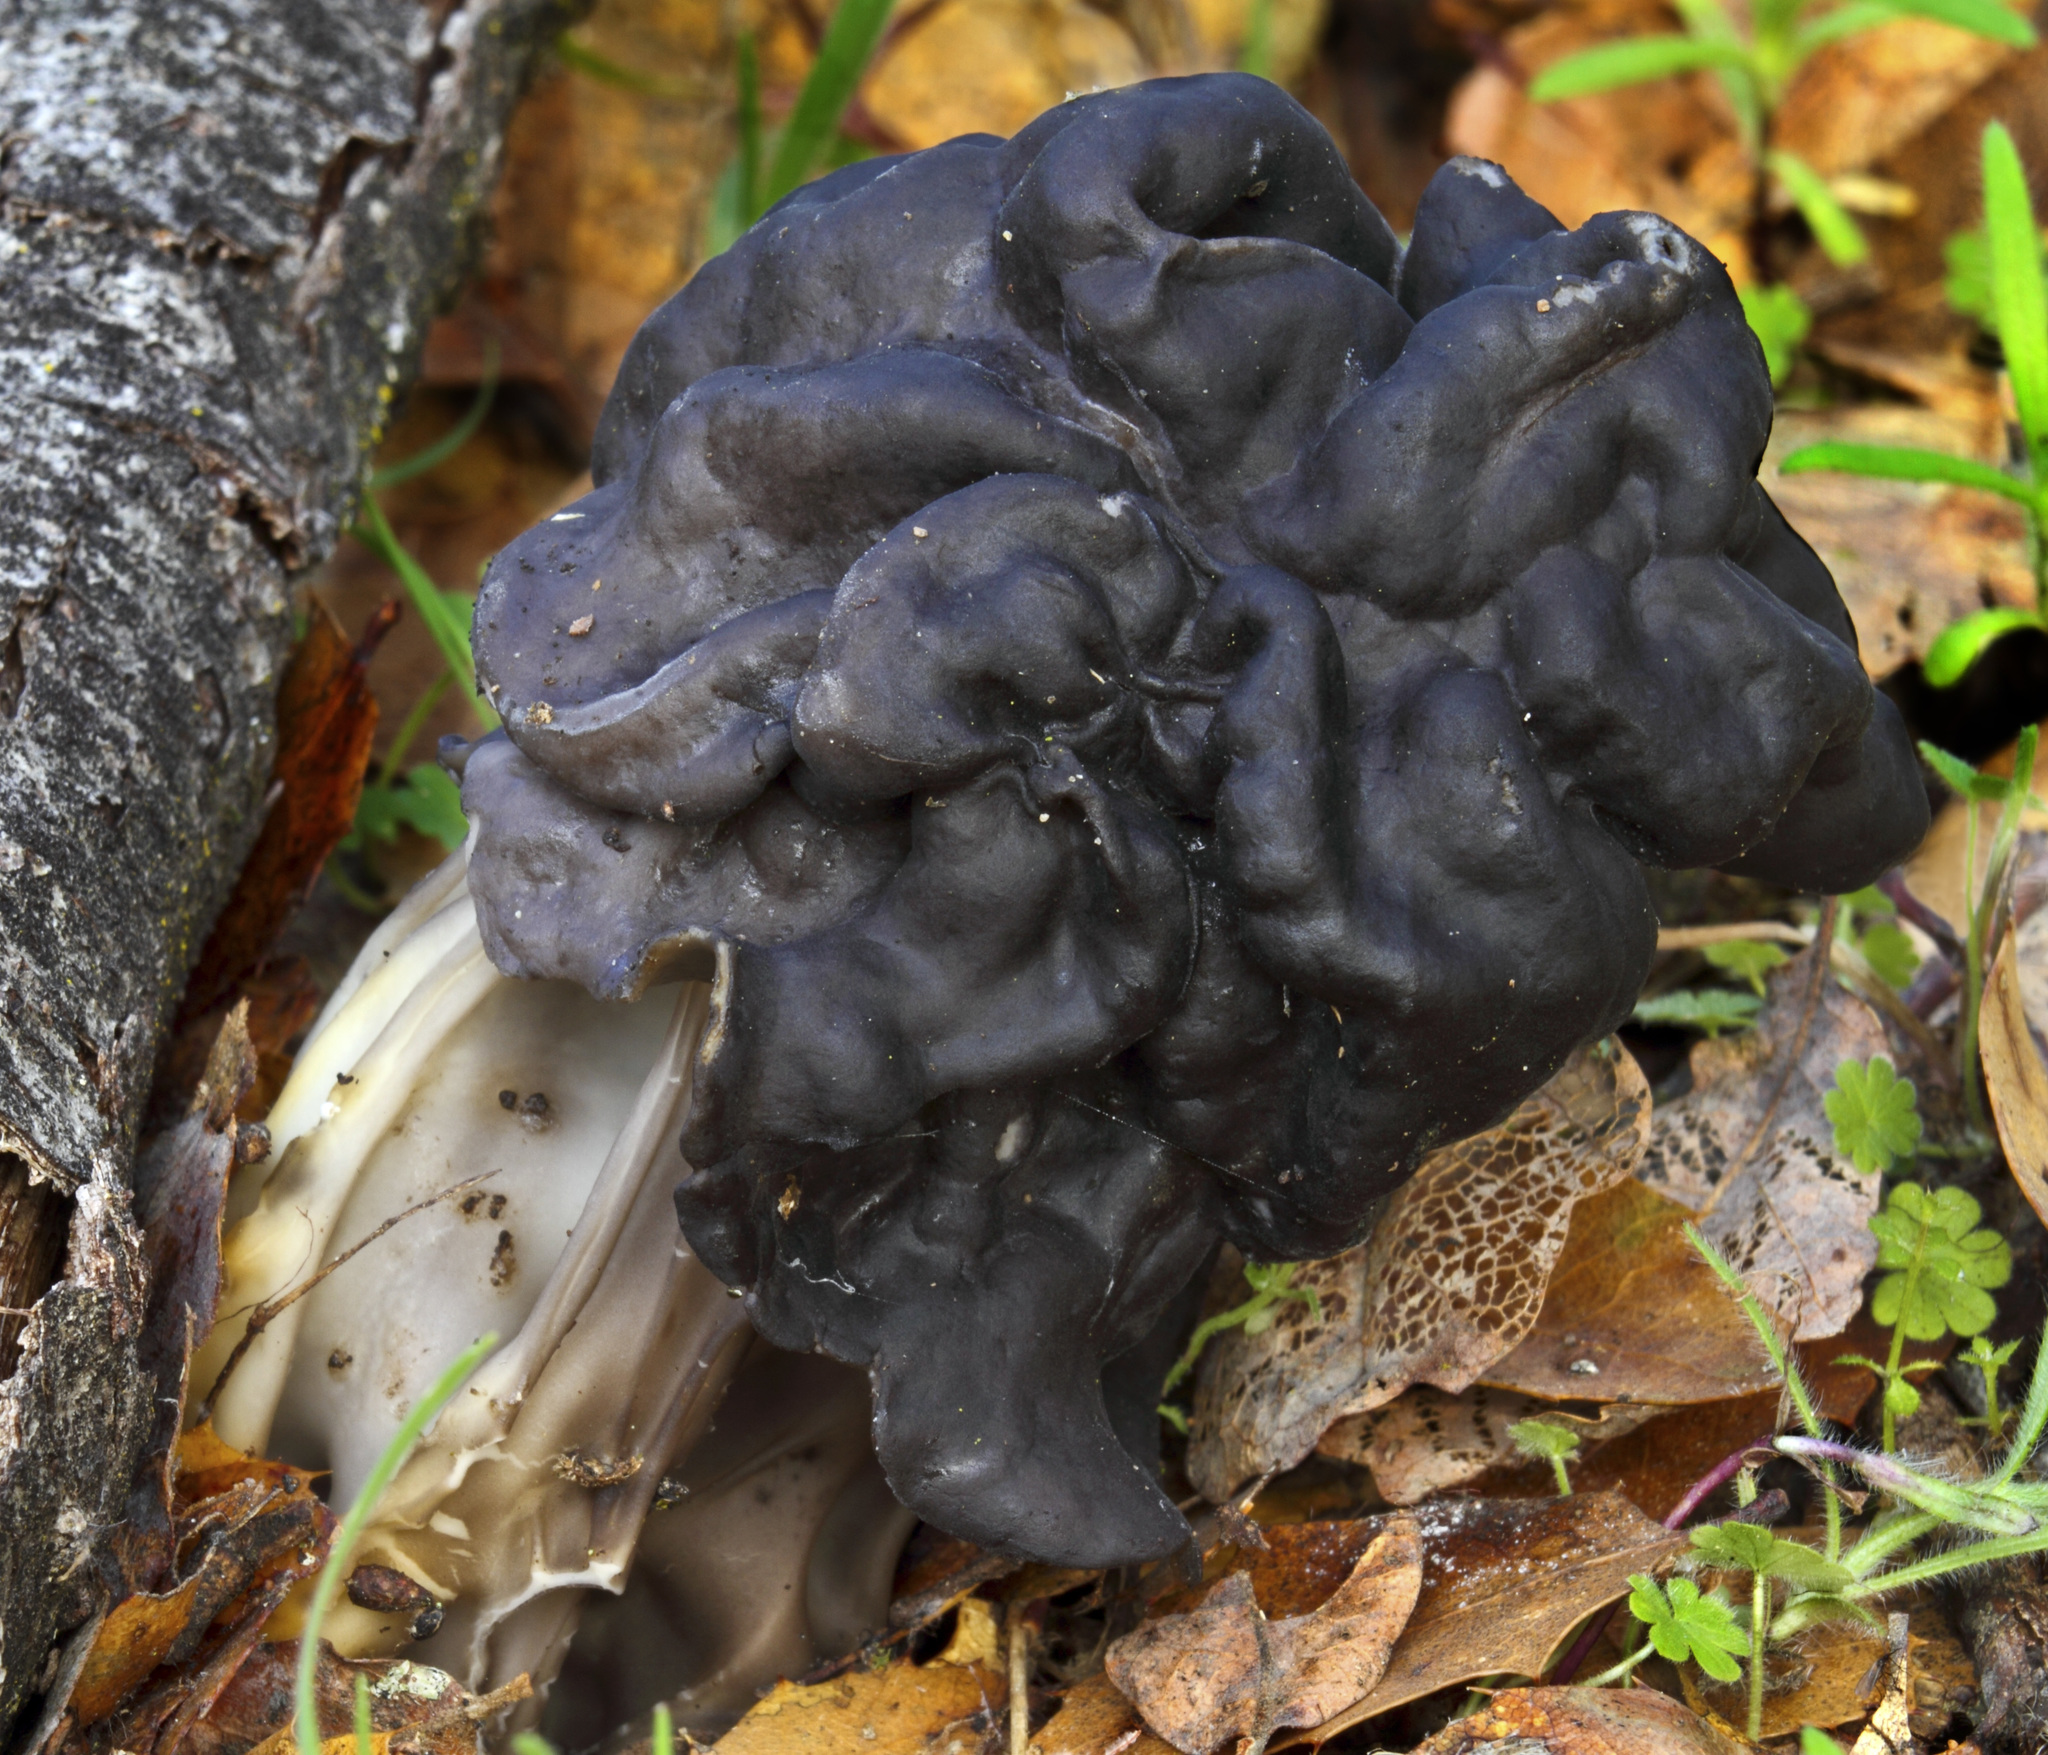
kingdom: Fungi
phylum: Ascomycota
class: Pezizomycetes
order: Pezizales
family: Helvellaceae
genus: Helvella
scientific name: Helvella dryophila
